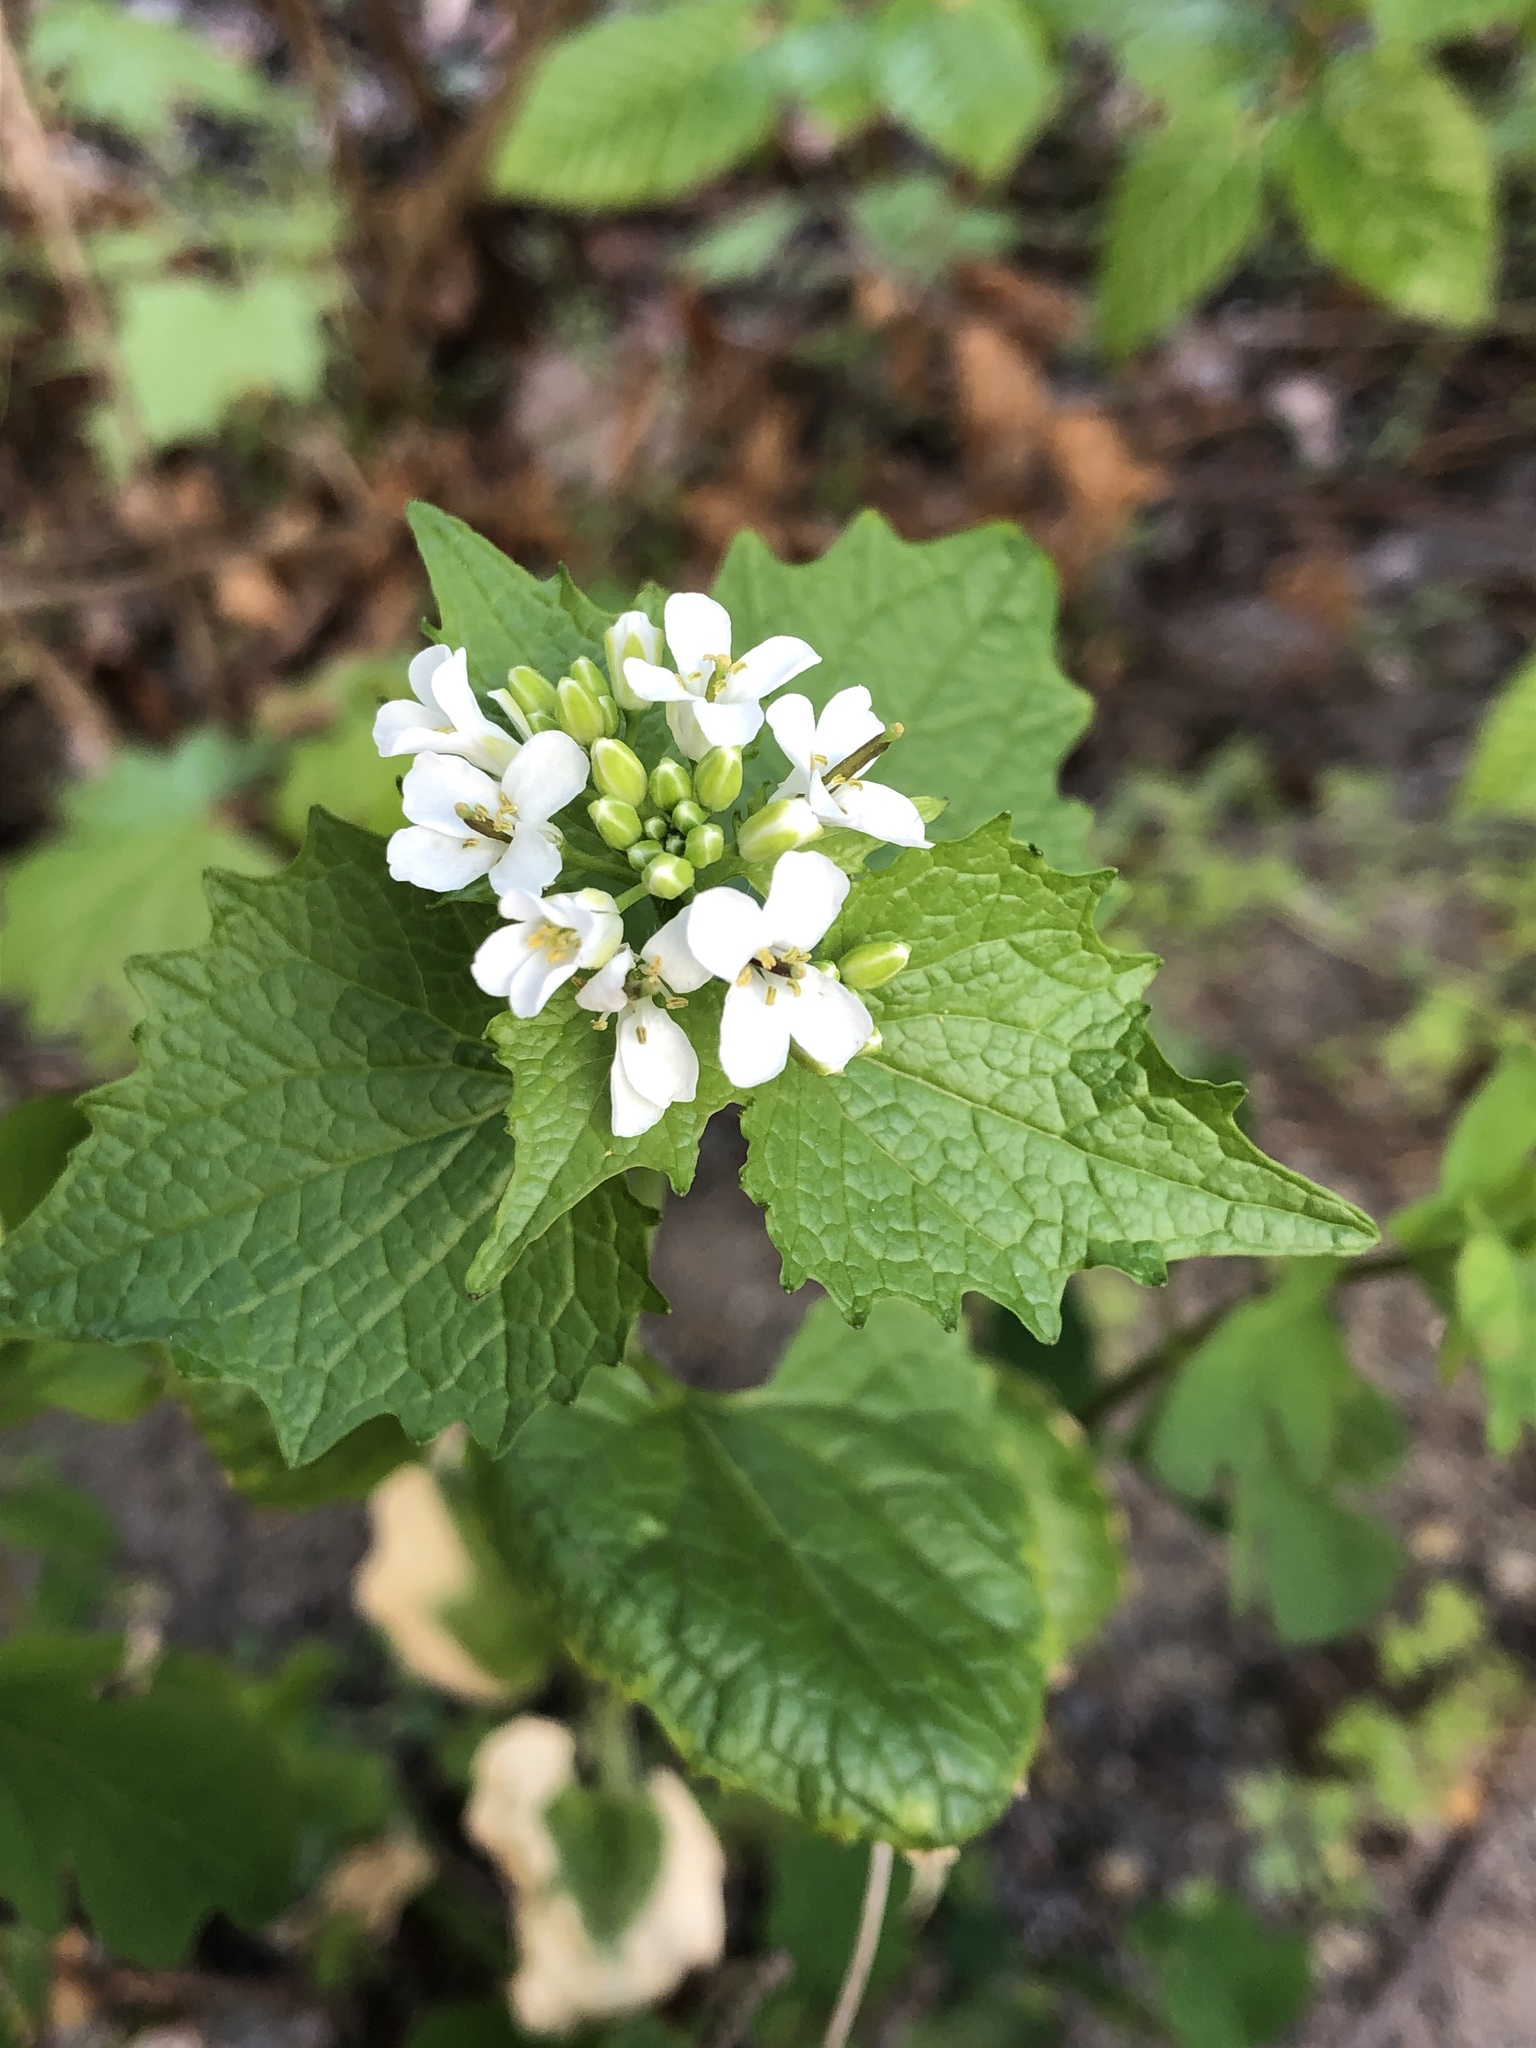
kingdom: Plantae
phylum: Tracheophyta
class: Magnoliopsida
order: Brassicales
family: Brassicaceae
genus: Alliaria
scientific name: Alliaria petiolata
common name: Garlic mustard
